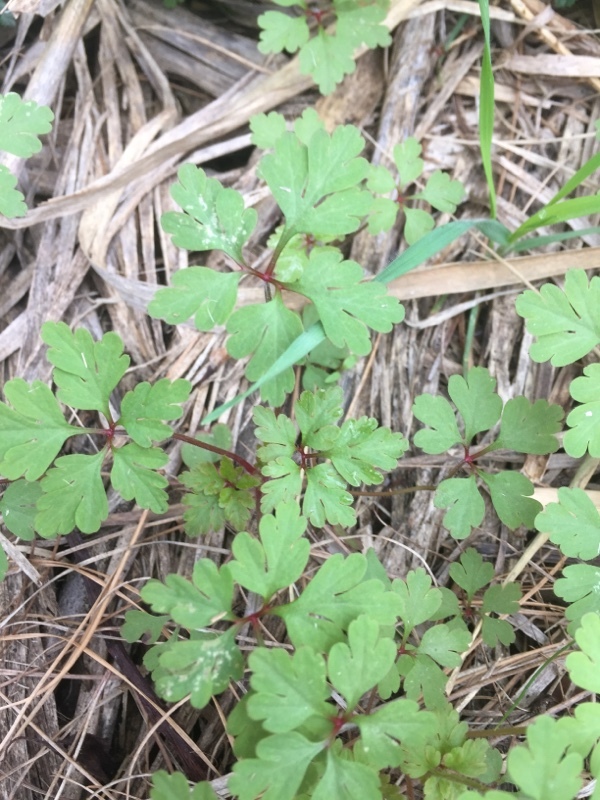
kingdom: Plantae
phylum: Tracheophyta
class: Magnoliopsida
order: Geraniales
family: Geraniaceae
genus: Geranium
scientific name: Geranium robertianum
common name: Herb-robert
